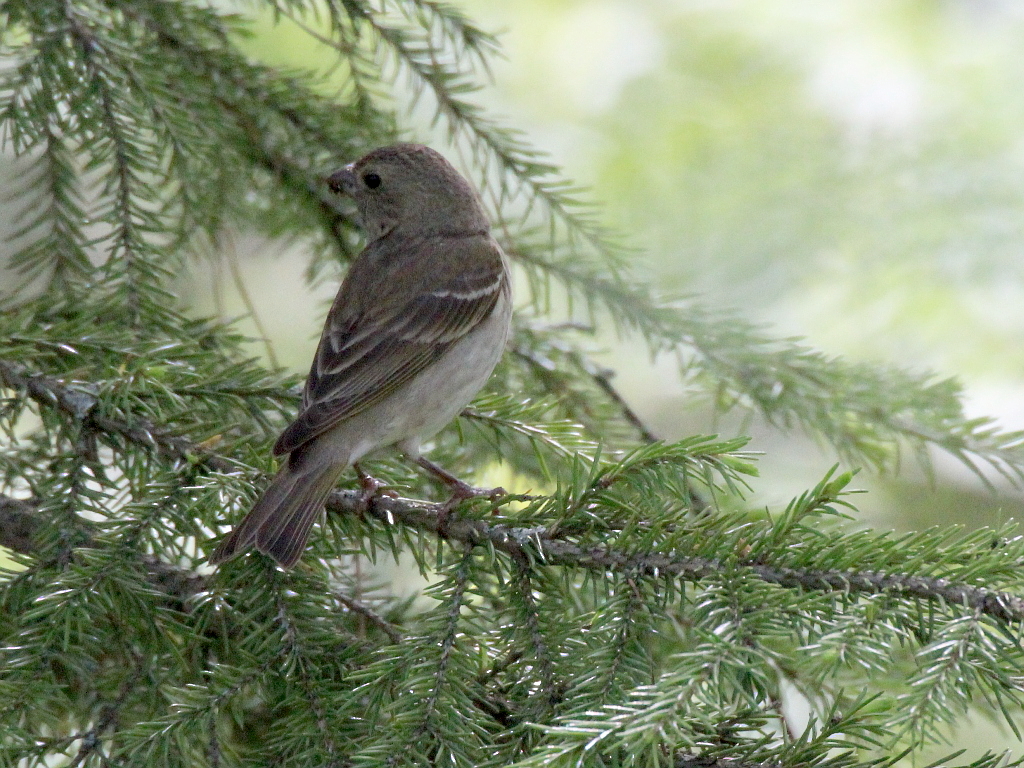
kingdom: Animalia
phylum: Chordata
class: Aves
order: Passeriformes
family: Fringillidae
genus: Carpodacus
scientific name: Carpodacus erythrinus
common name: Common rosefinch
